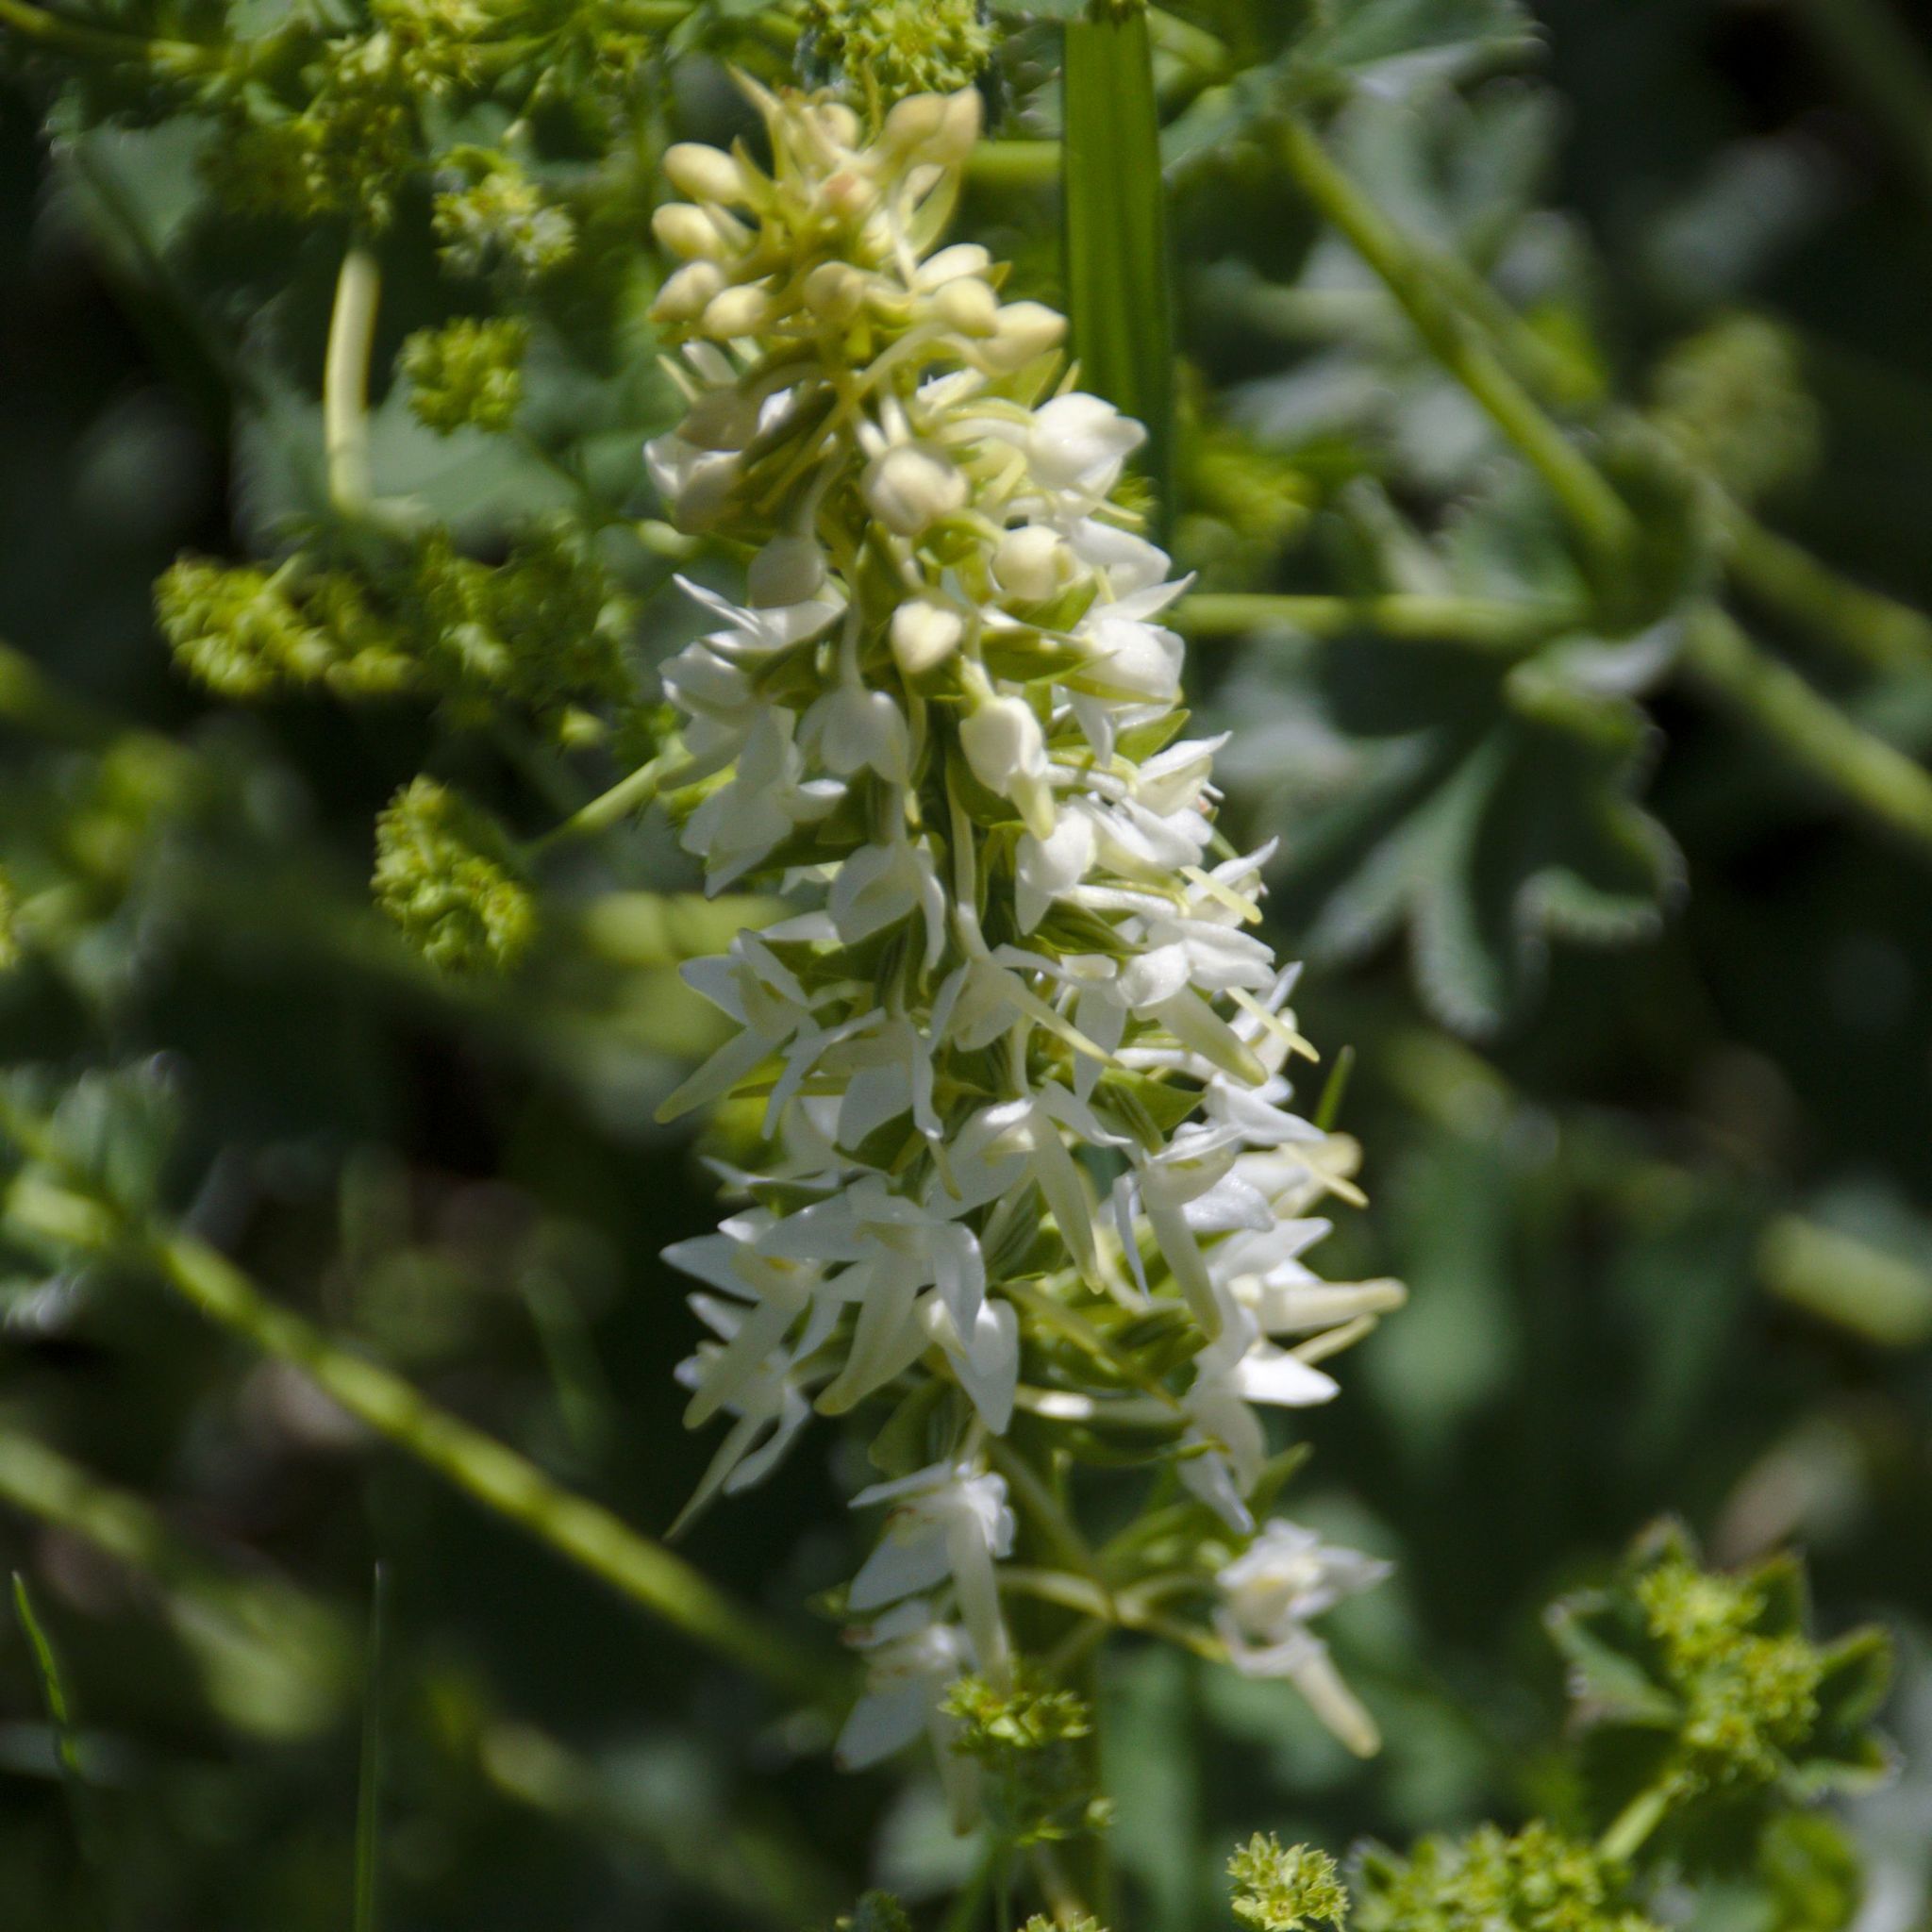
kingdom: Plantae
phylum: Tracheophyta
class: Liliopsida
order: Asparagales
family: Orchidaceae
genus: Platanthera
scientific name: Platanthera bifolia
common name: Lesser butterfly-orchid
